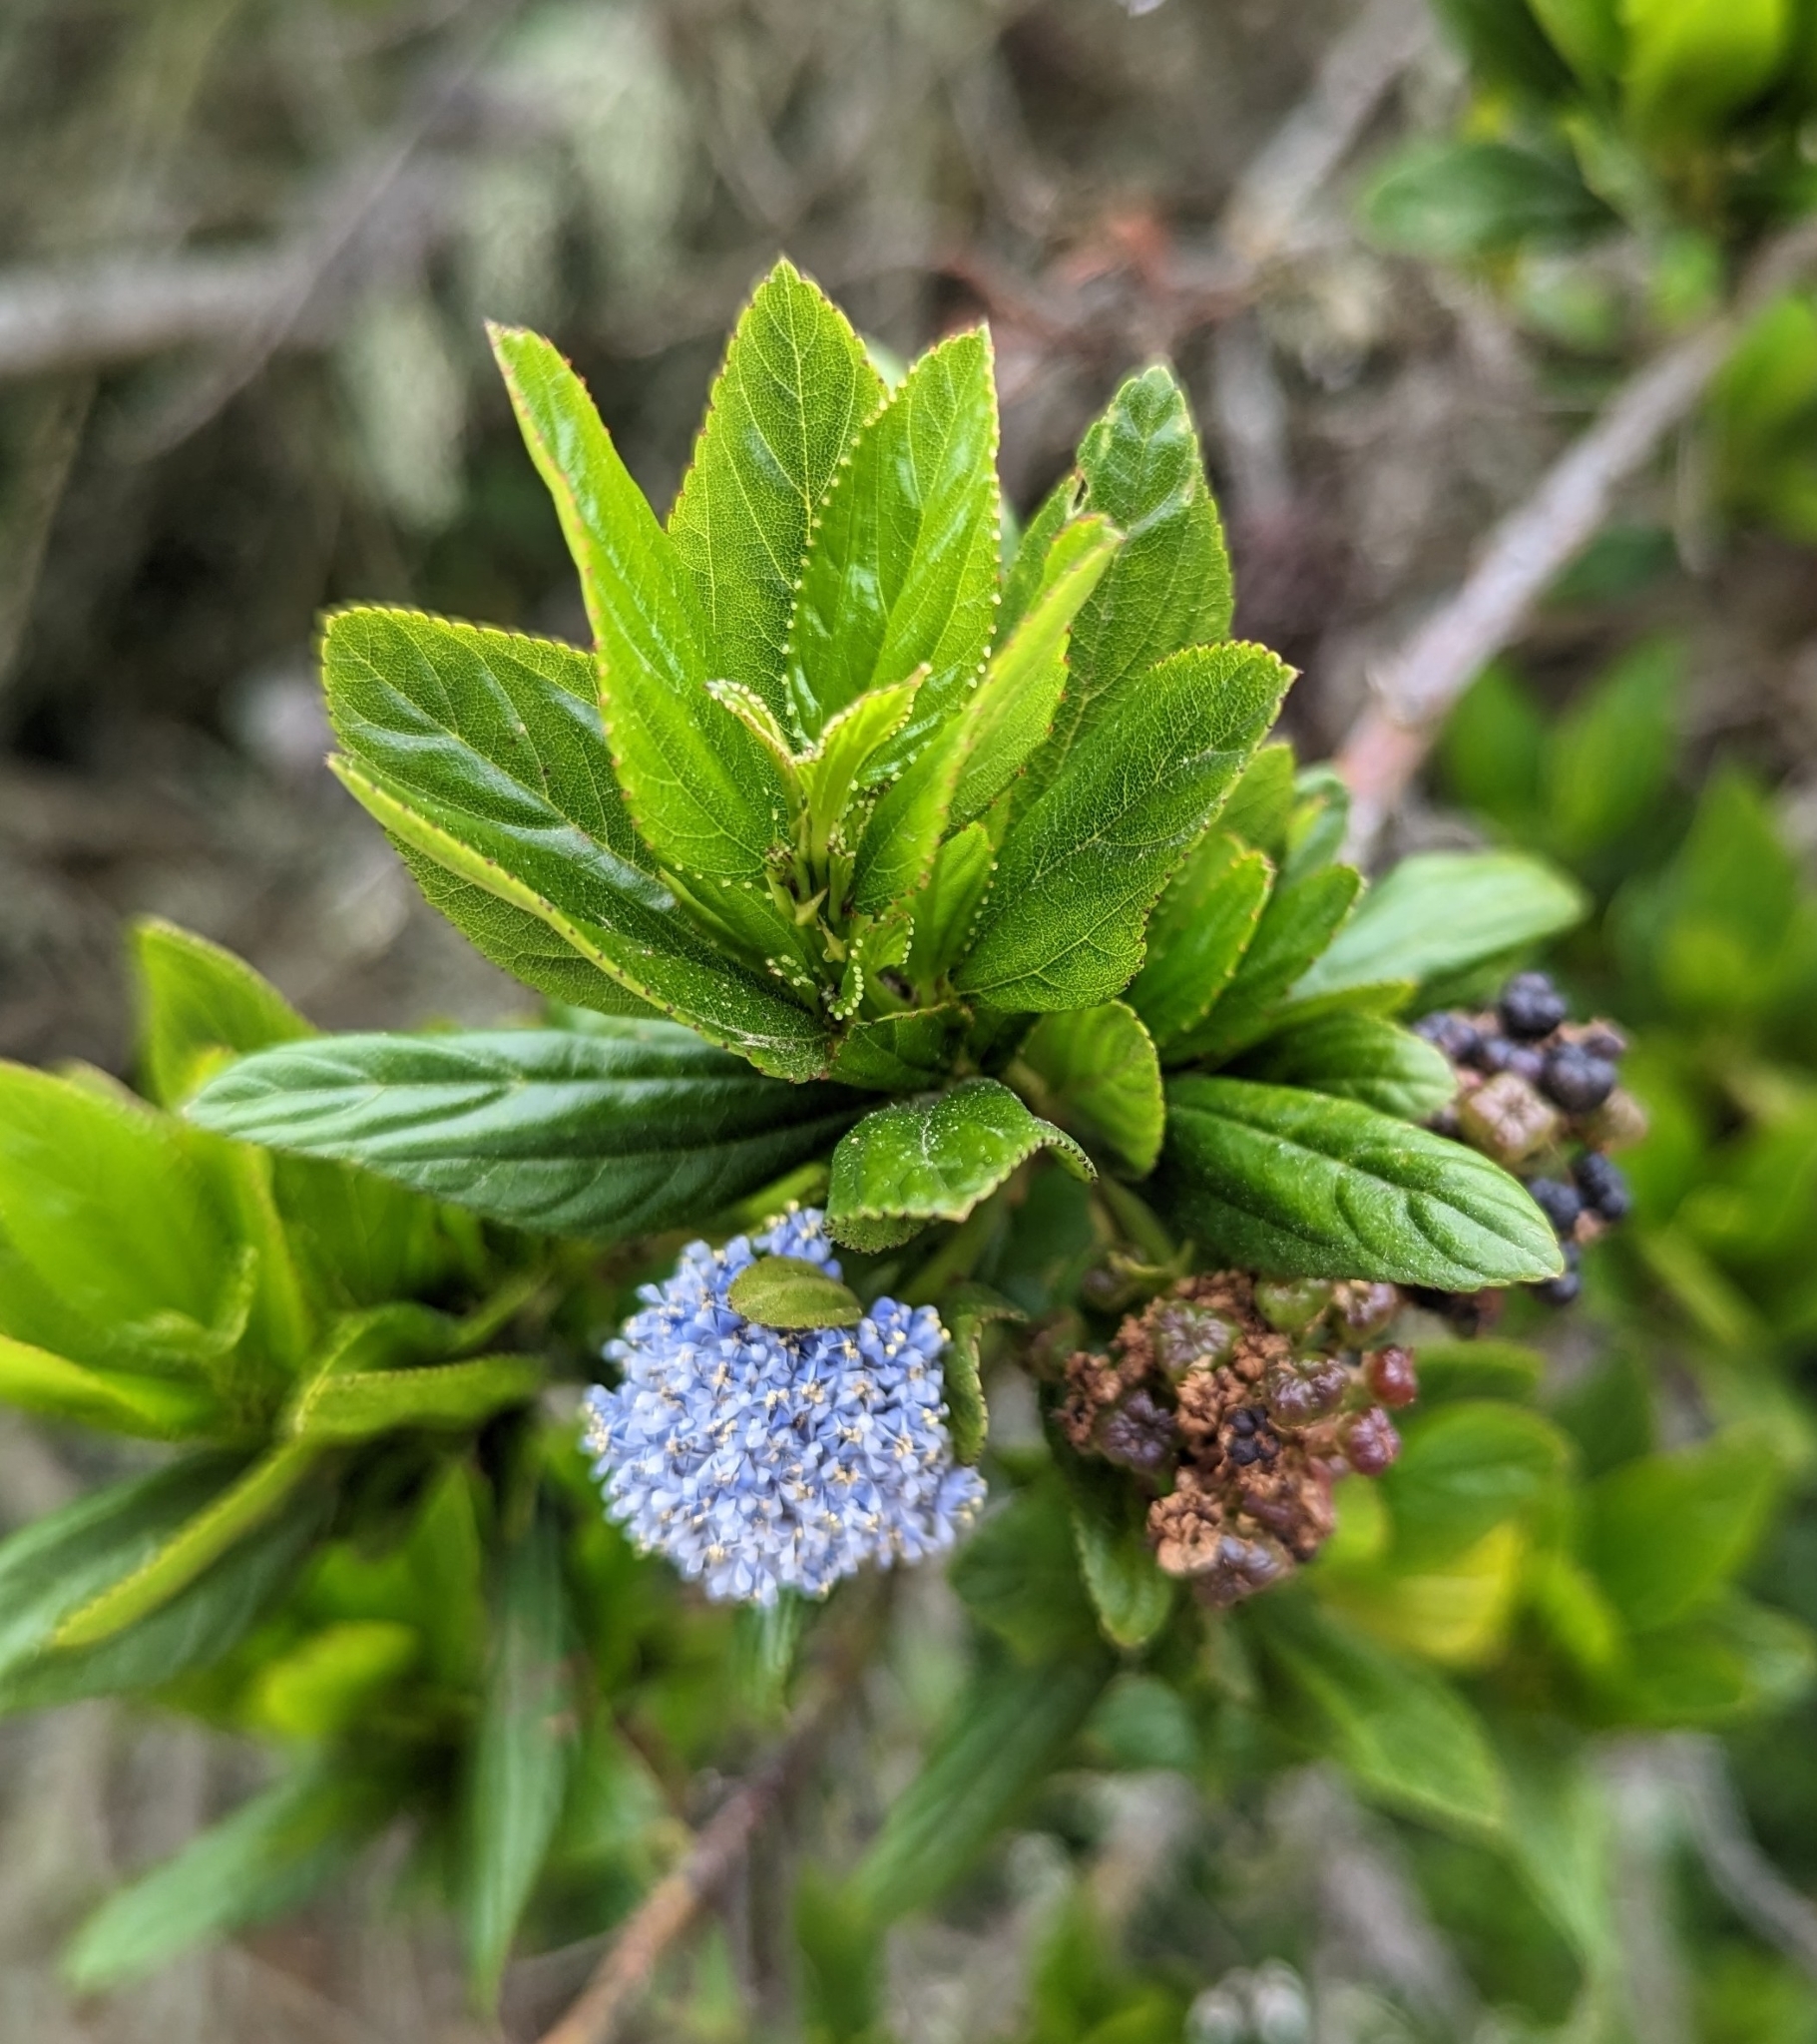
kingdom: Plantae
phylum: Tracheophyta
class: Magnoliopsida
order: Rosales
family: Rhamnaceae
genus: Ceanothus
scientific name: Ceanothus thyrsiflorus
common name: California-lilac
